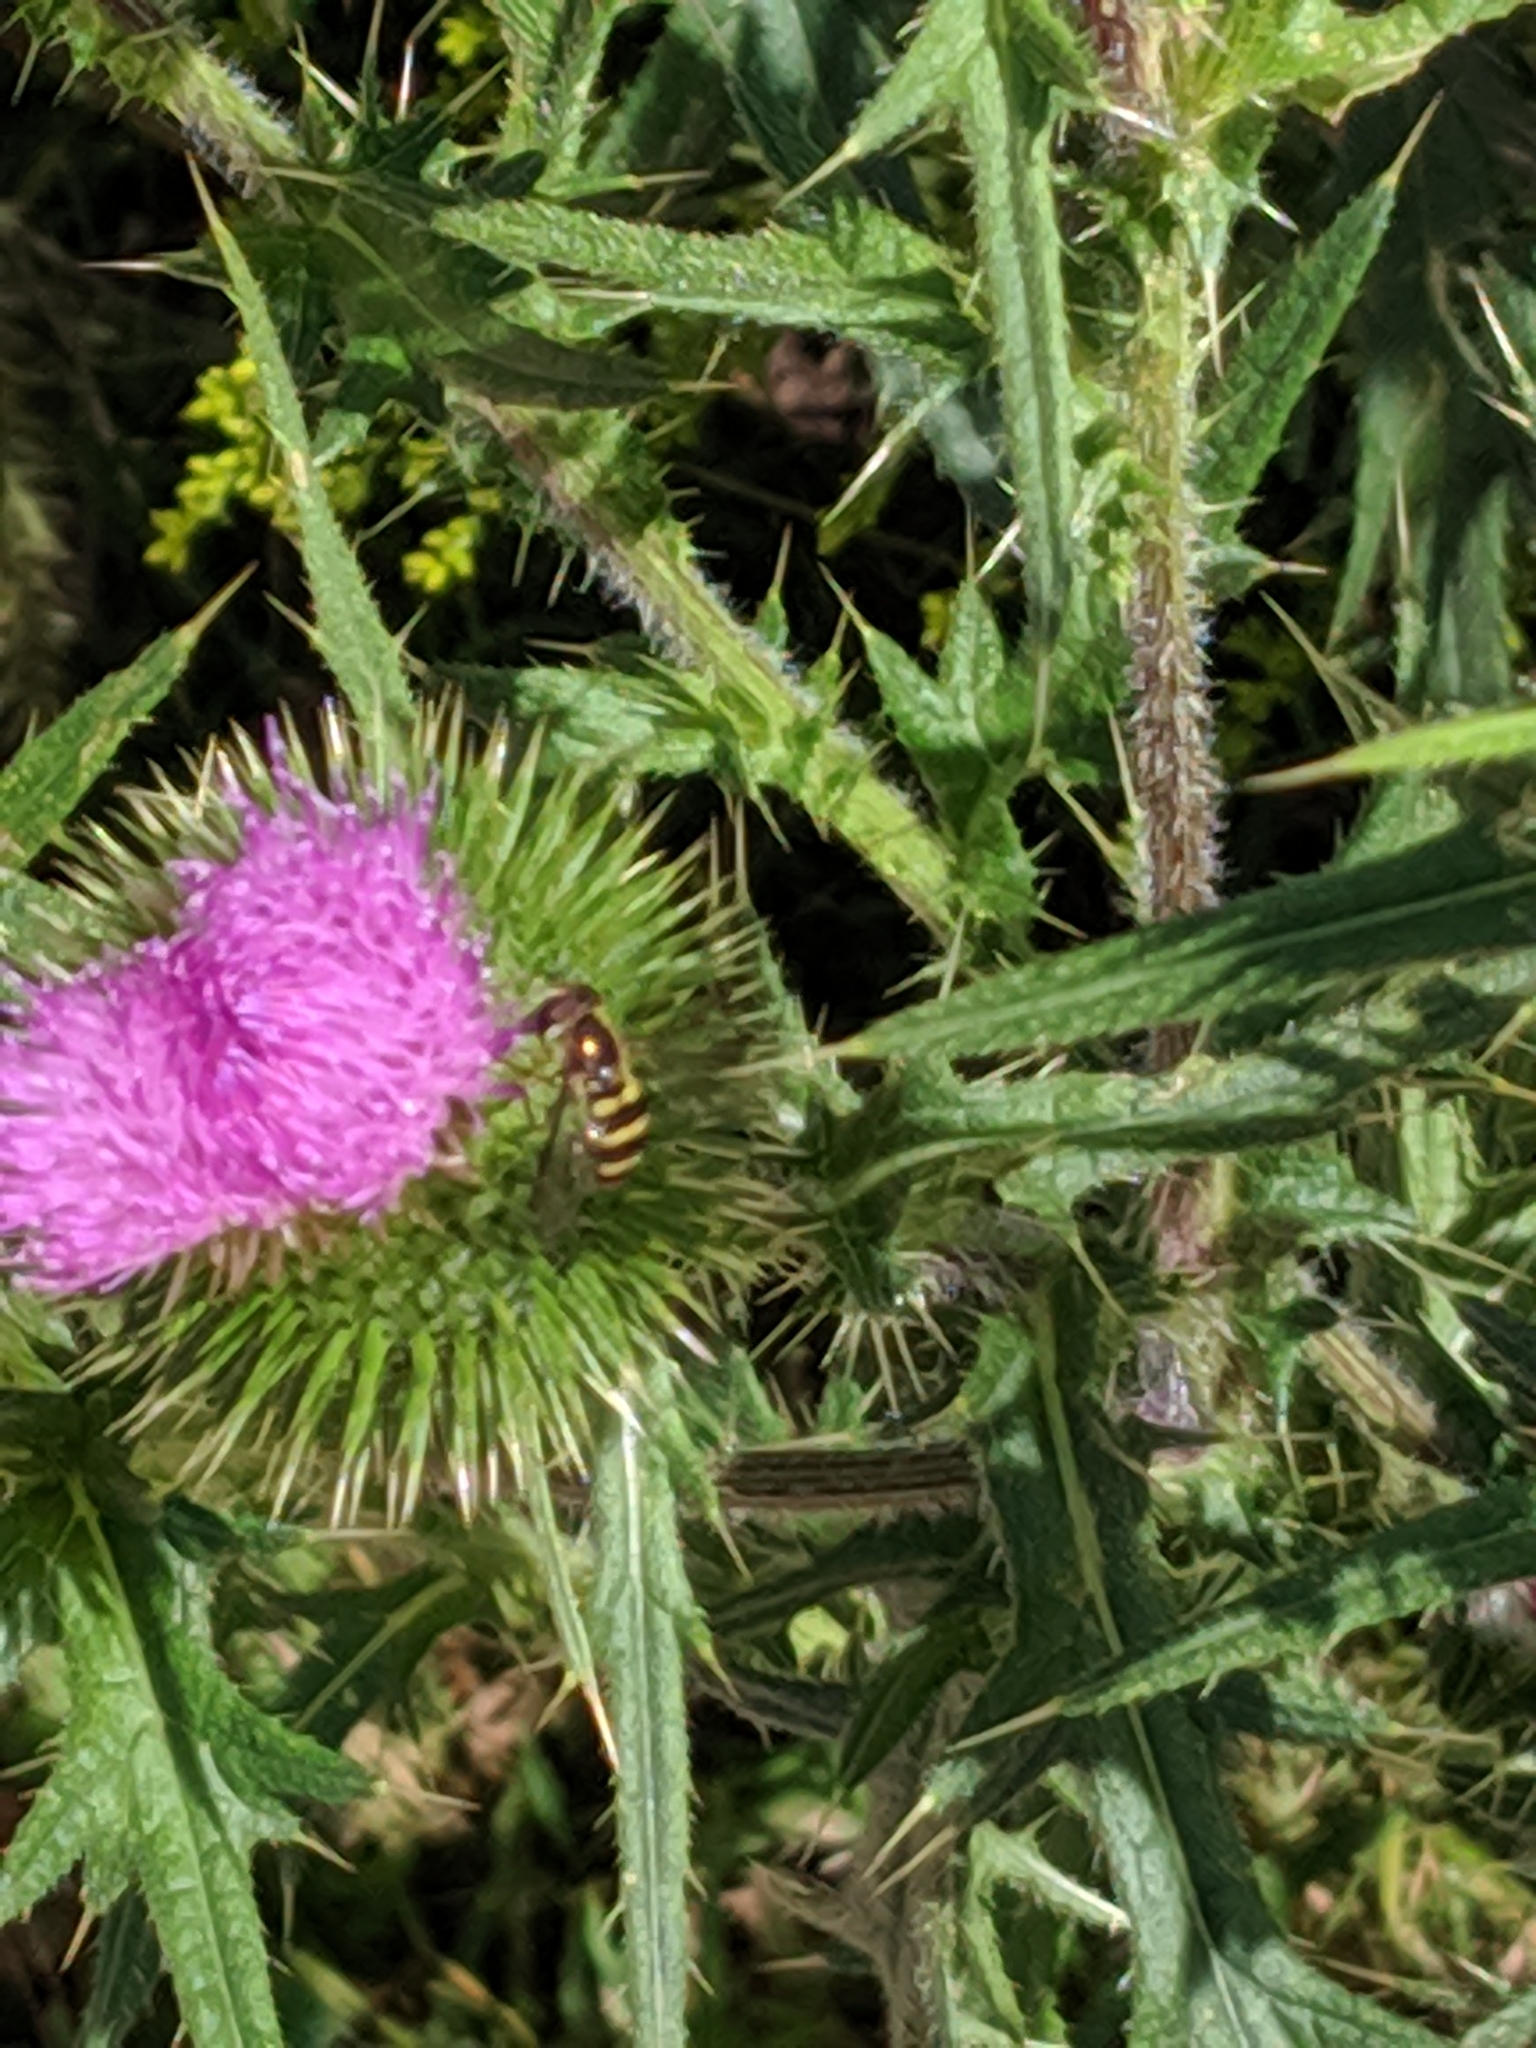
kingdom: Animalia
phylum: Arthropoda
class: Insecta
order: Diptera
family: Syrphidae
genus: Eupeodes
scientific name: Eupeodes
